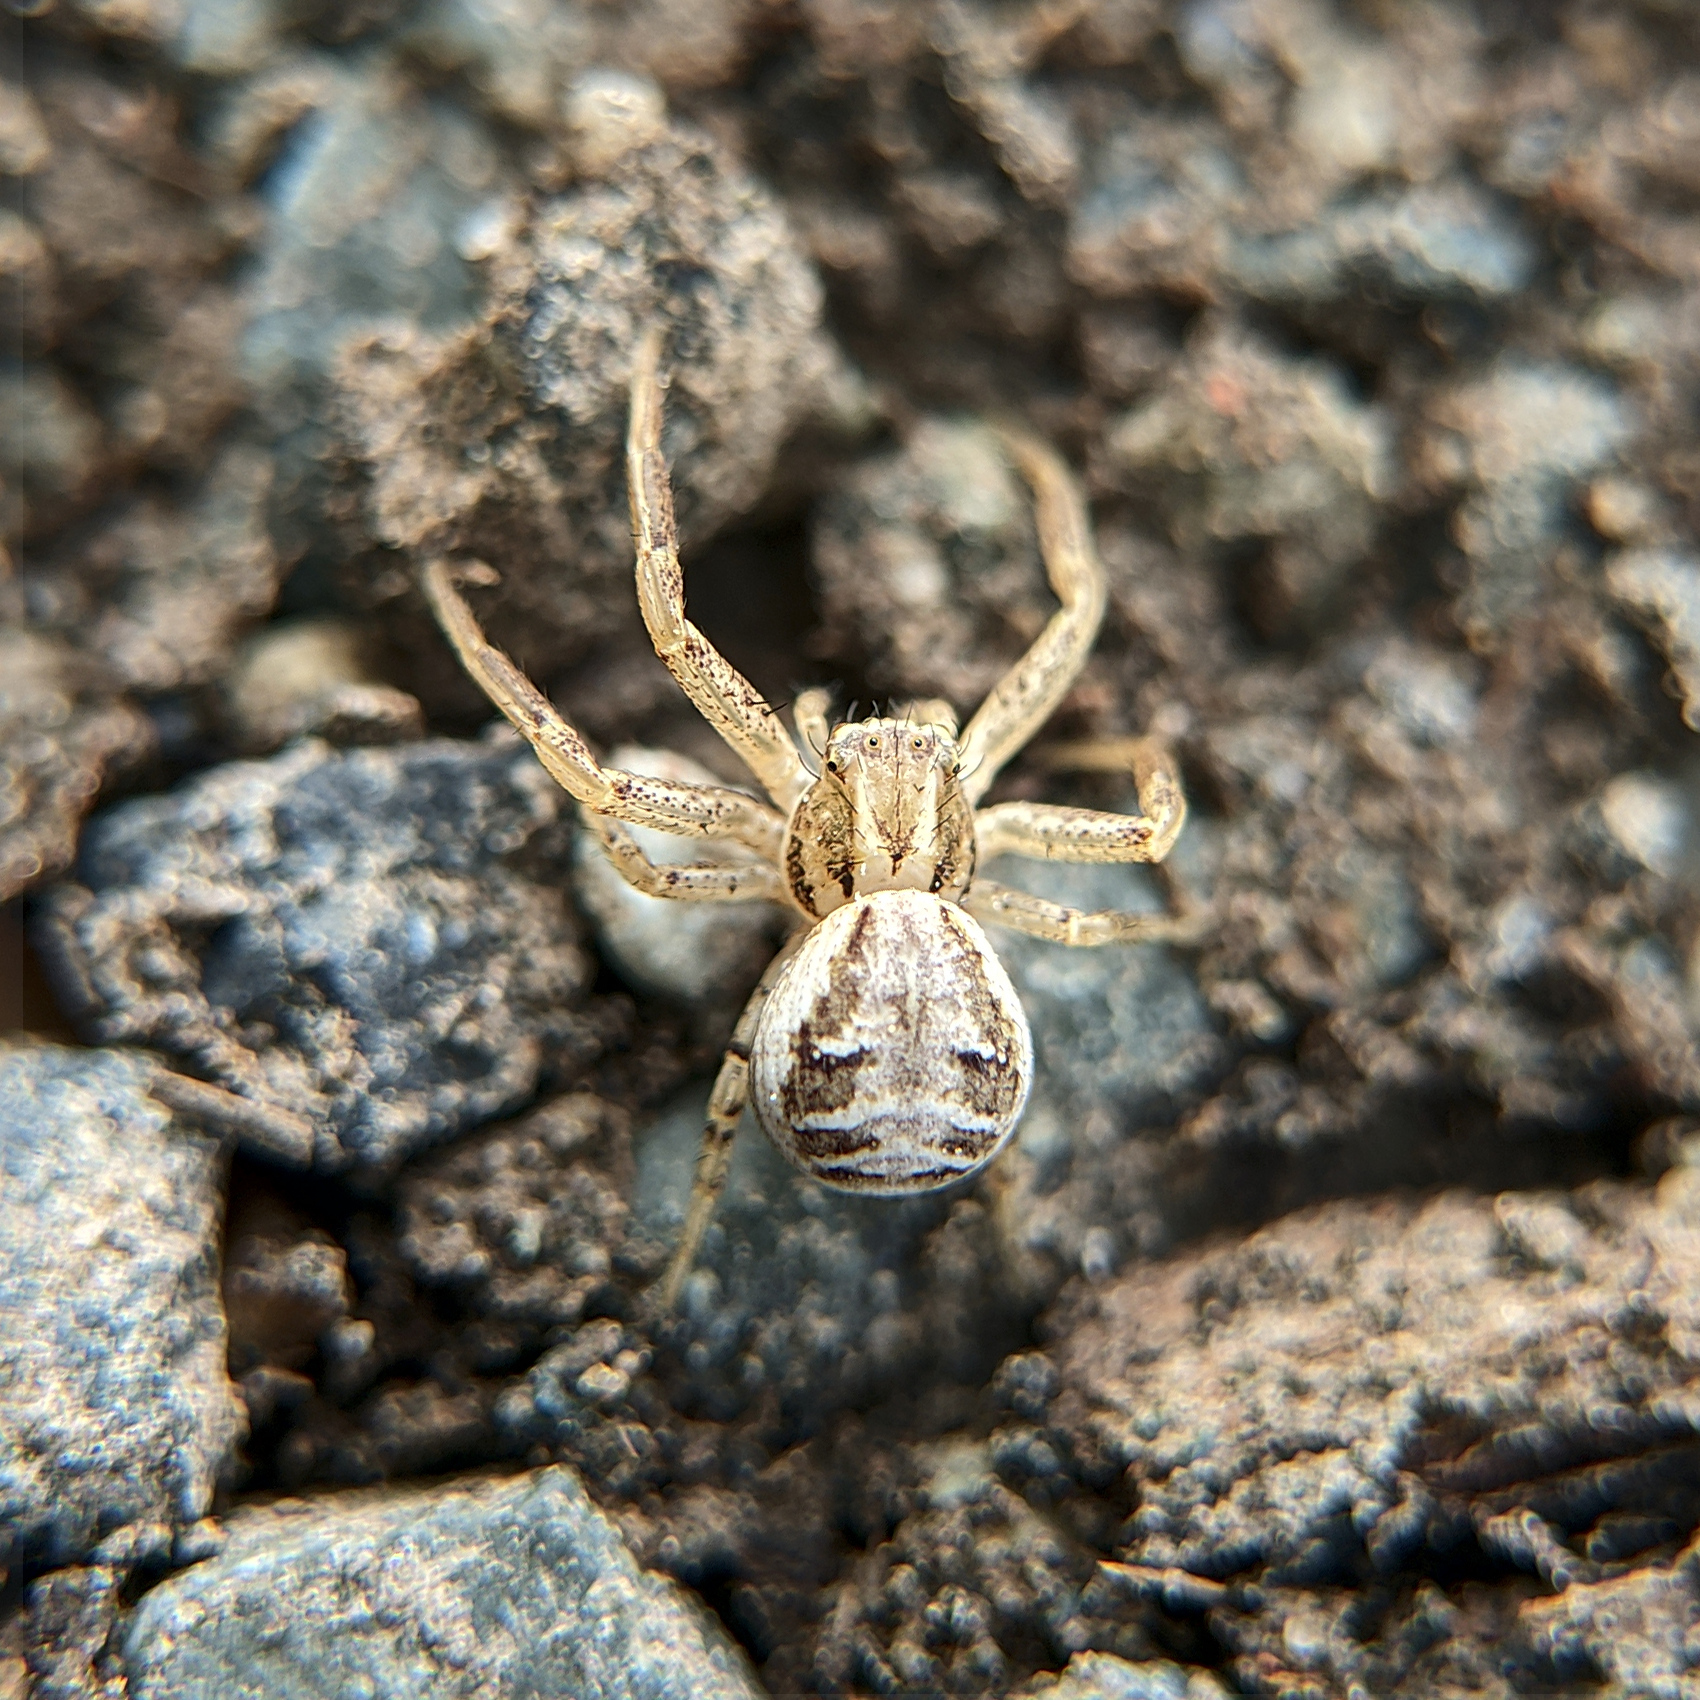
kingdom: Animalia
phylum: Arthropoda
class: Arachnida
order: Araneae
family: Thomisidae
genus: Xysticus
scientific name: Xysticus
